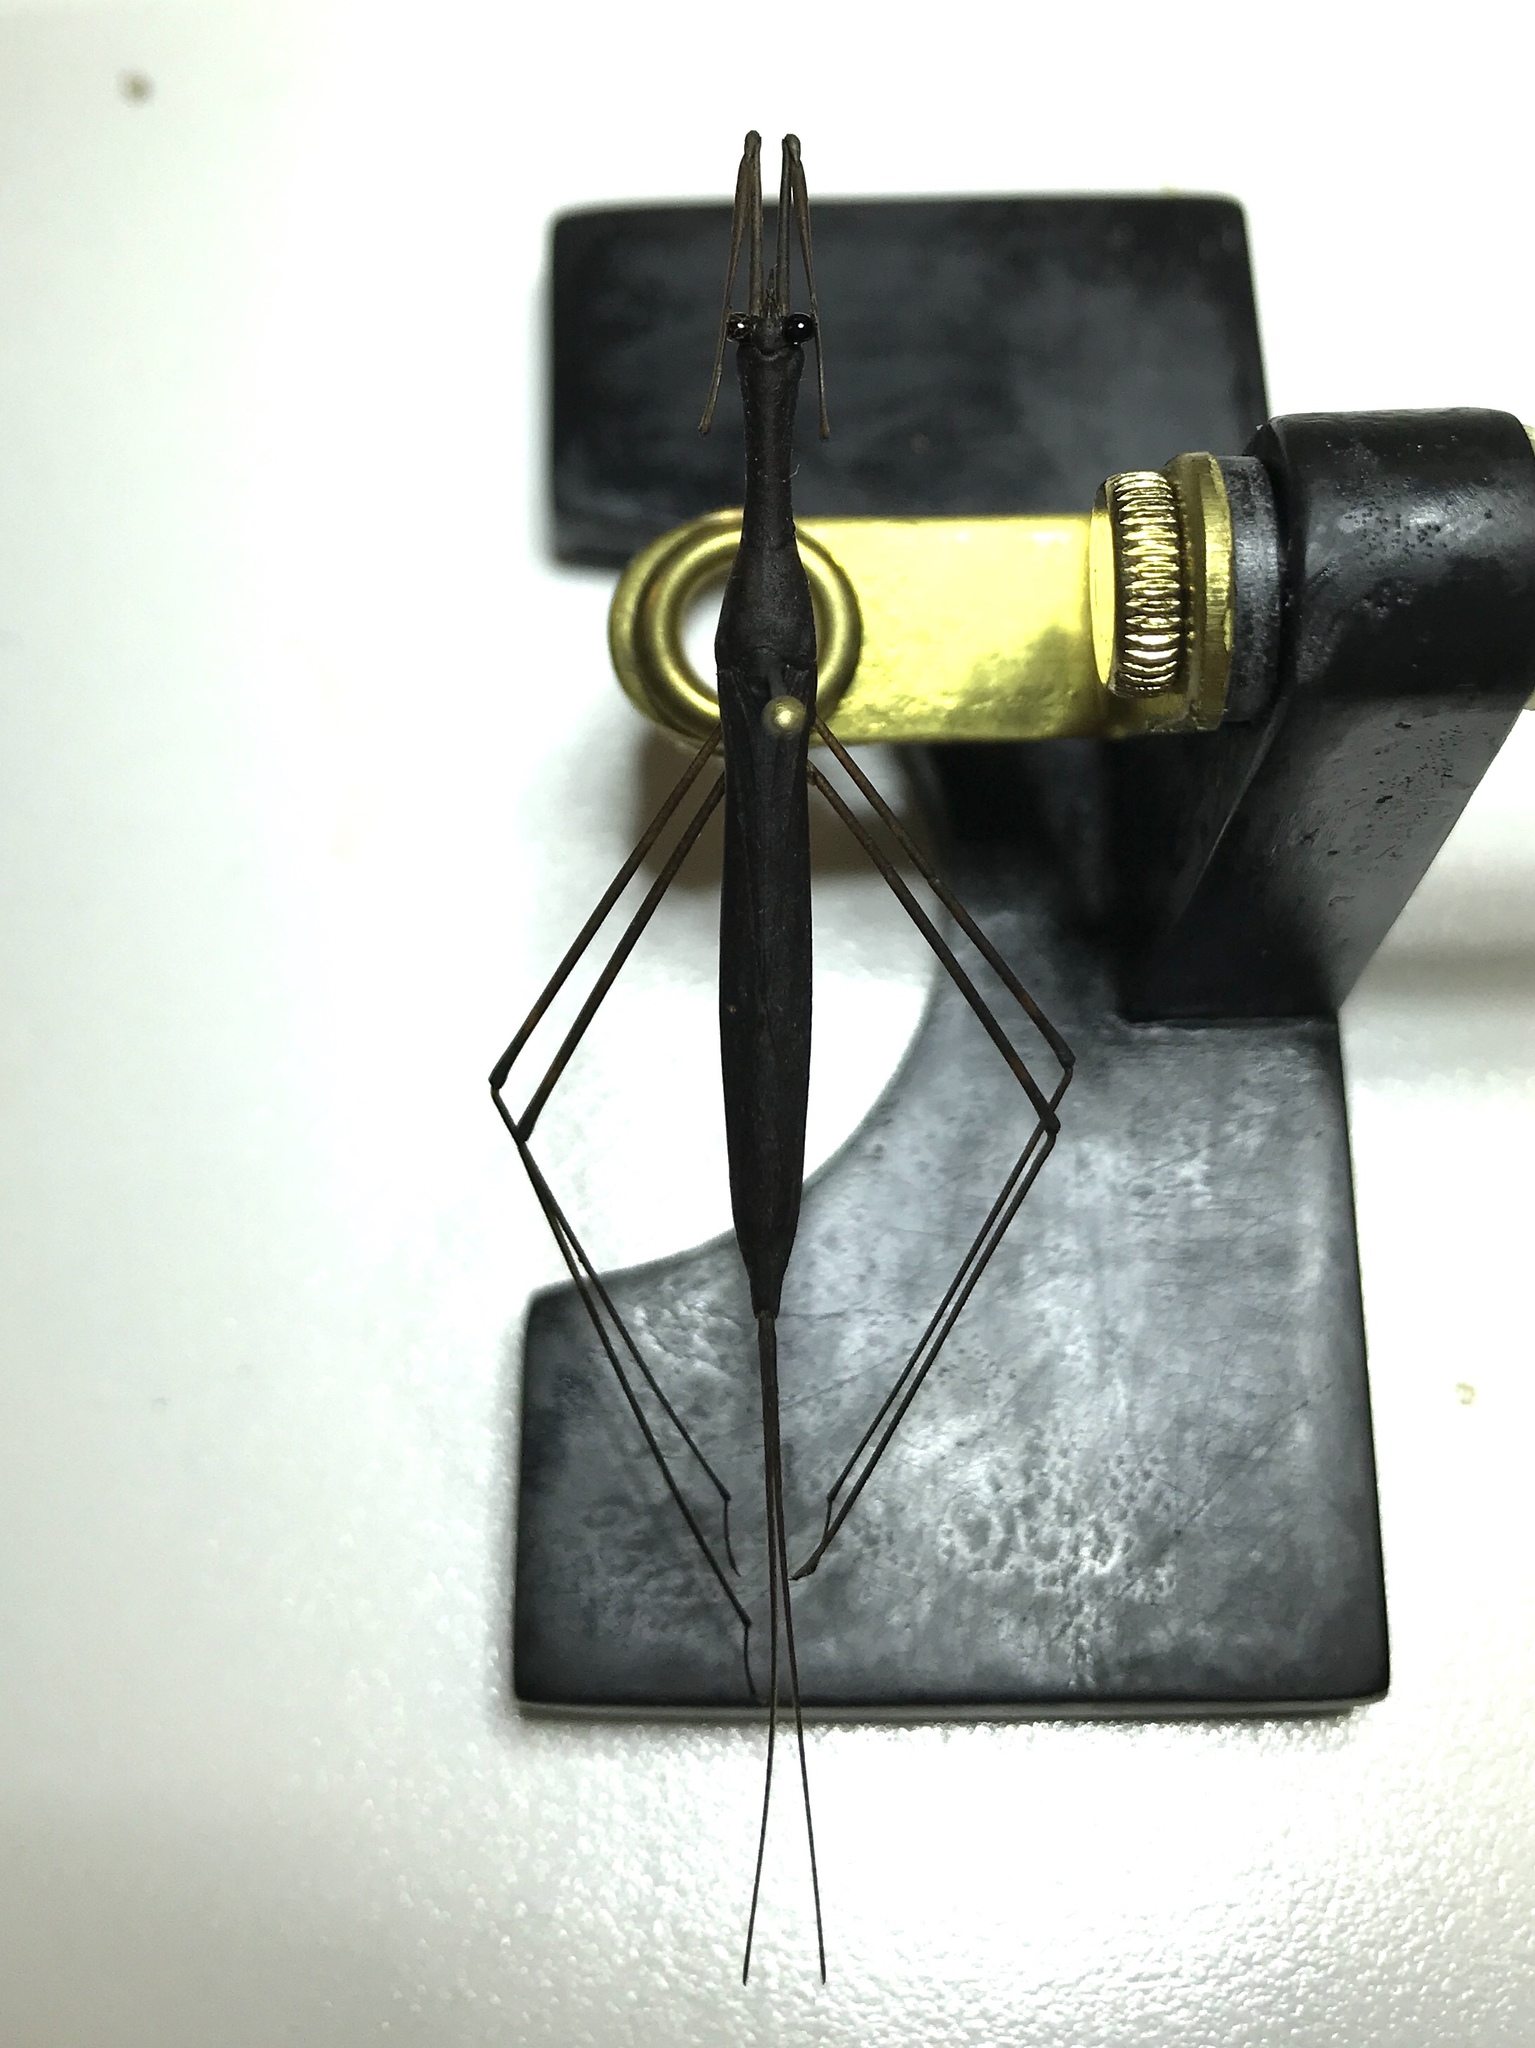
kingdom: Animalia
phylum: Arthropoda
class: Insecta
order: Hemiptera
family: Nepidae
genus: Ranatra
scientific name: Ranatra buenoi
